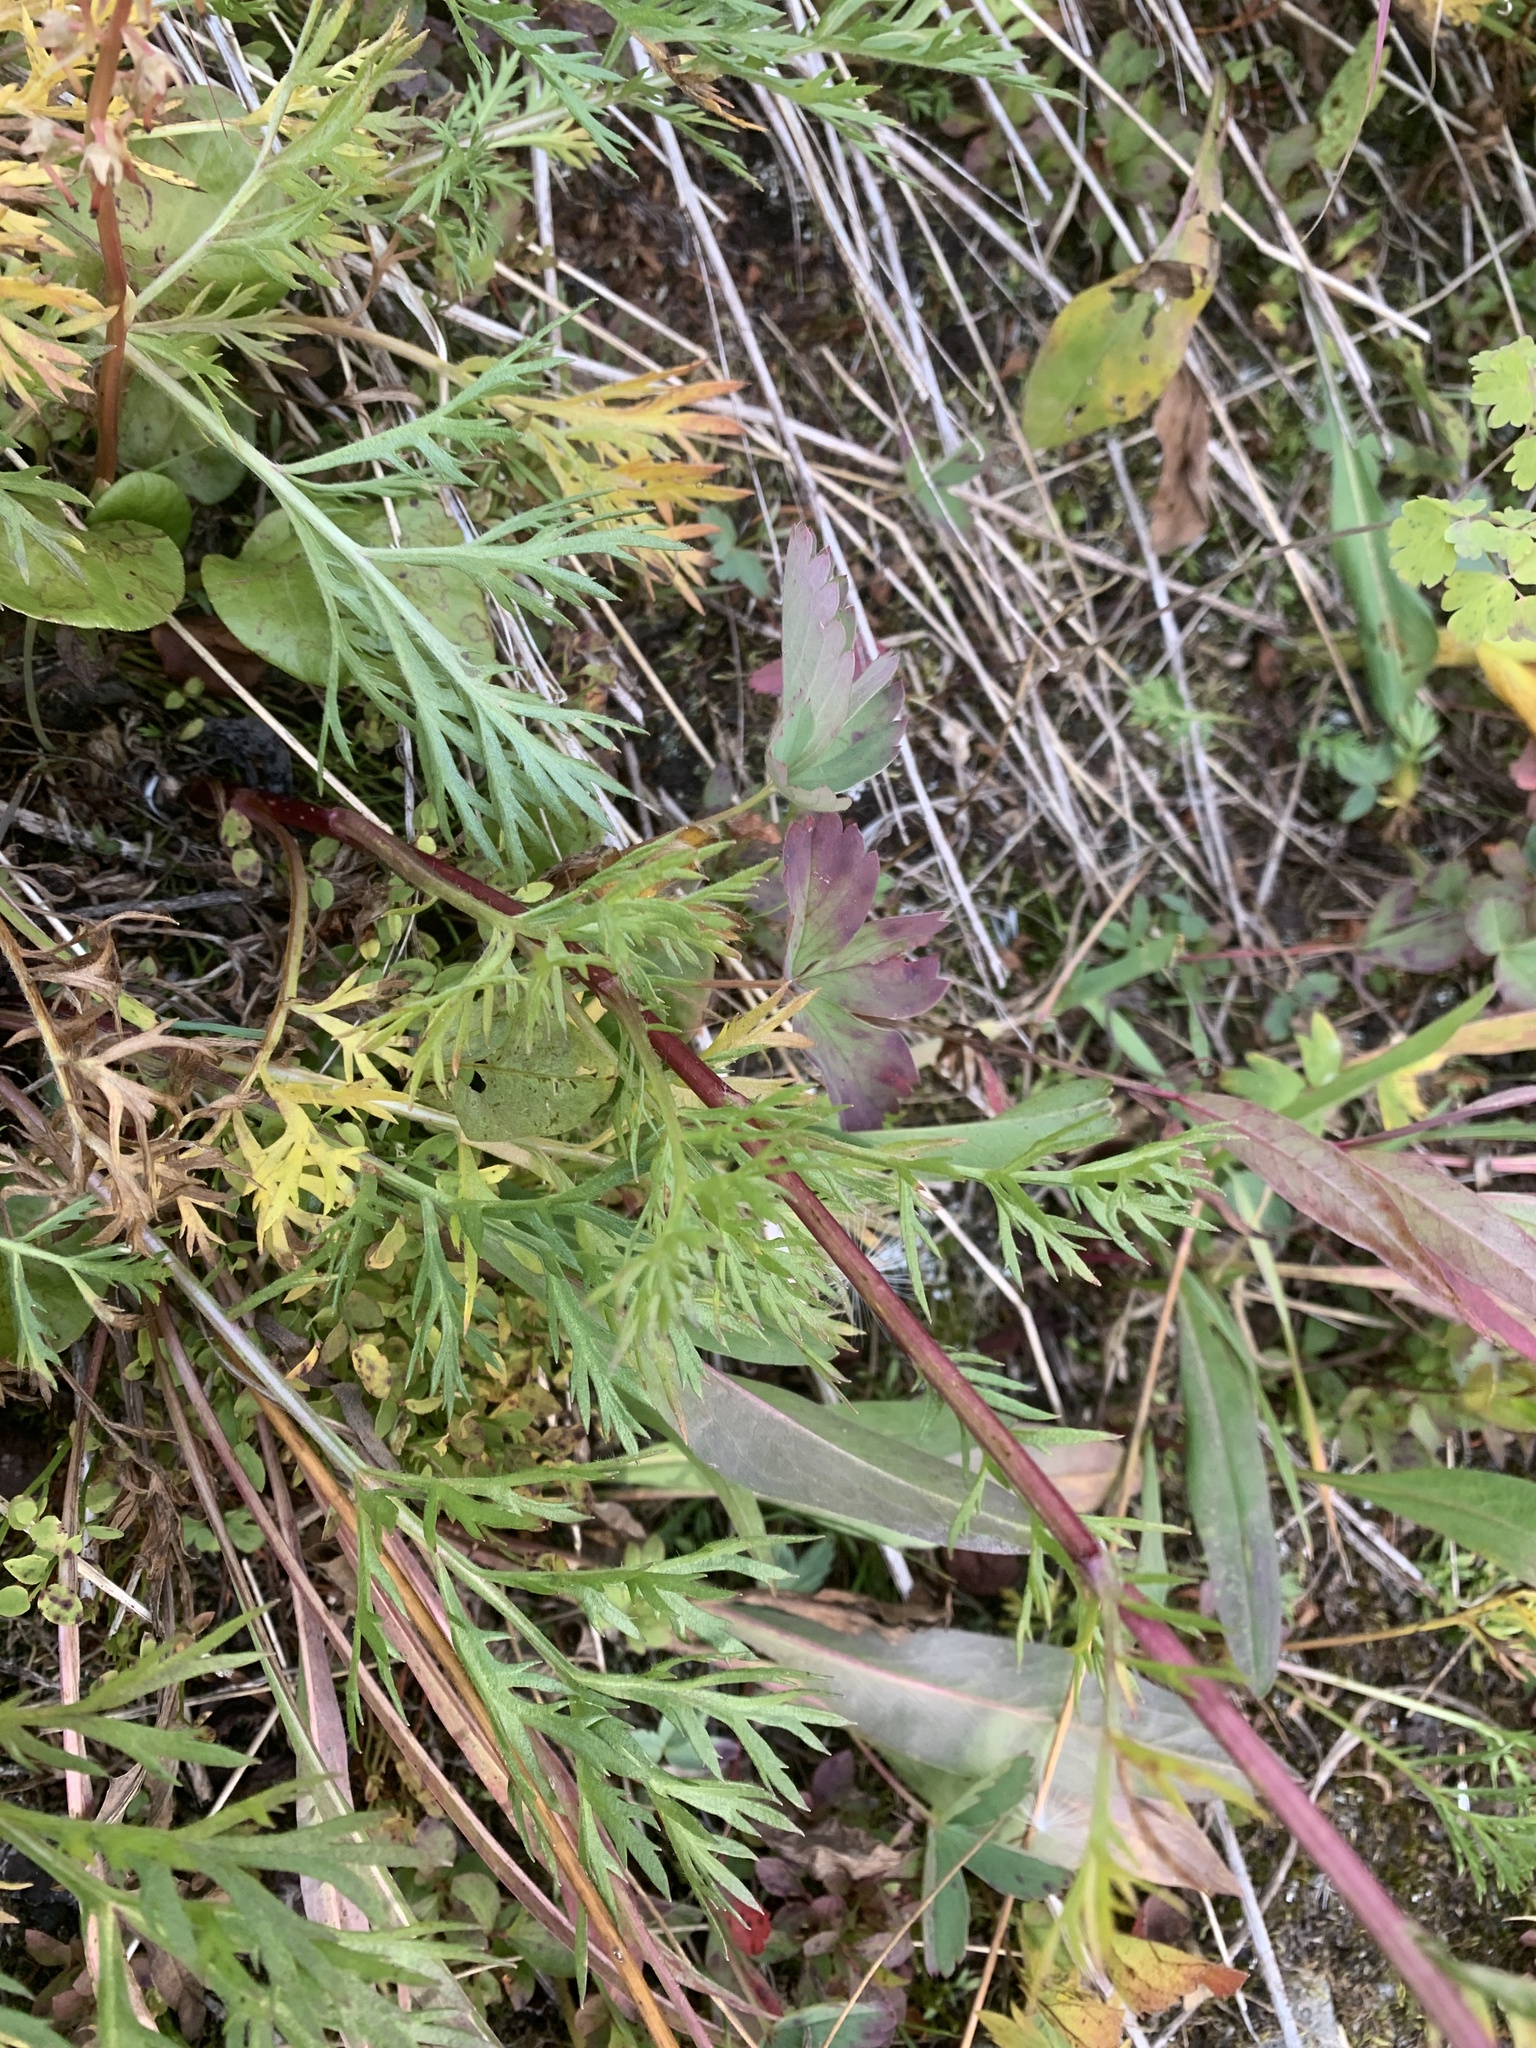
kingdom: Plantae
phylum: Tracheophyta
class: Magnoliopsida
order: Asterales
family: Asteraceae
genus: Artemisia
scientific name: Artemisia norvegica
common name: Norwegian mugwort
